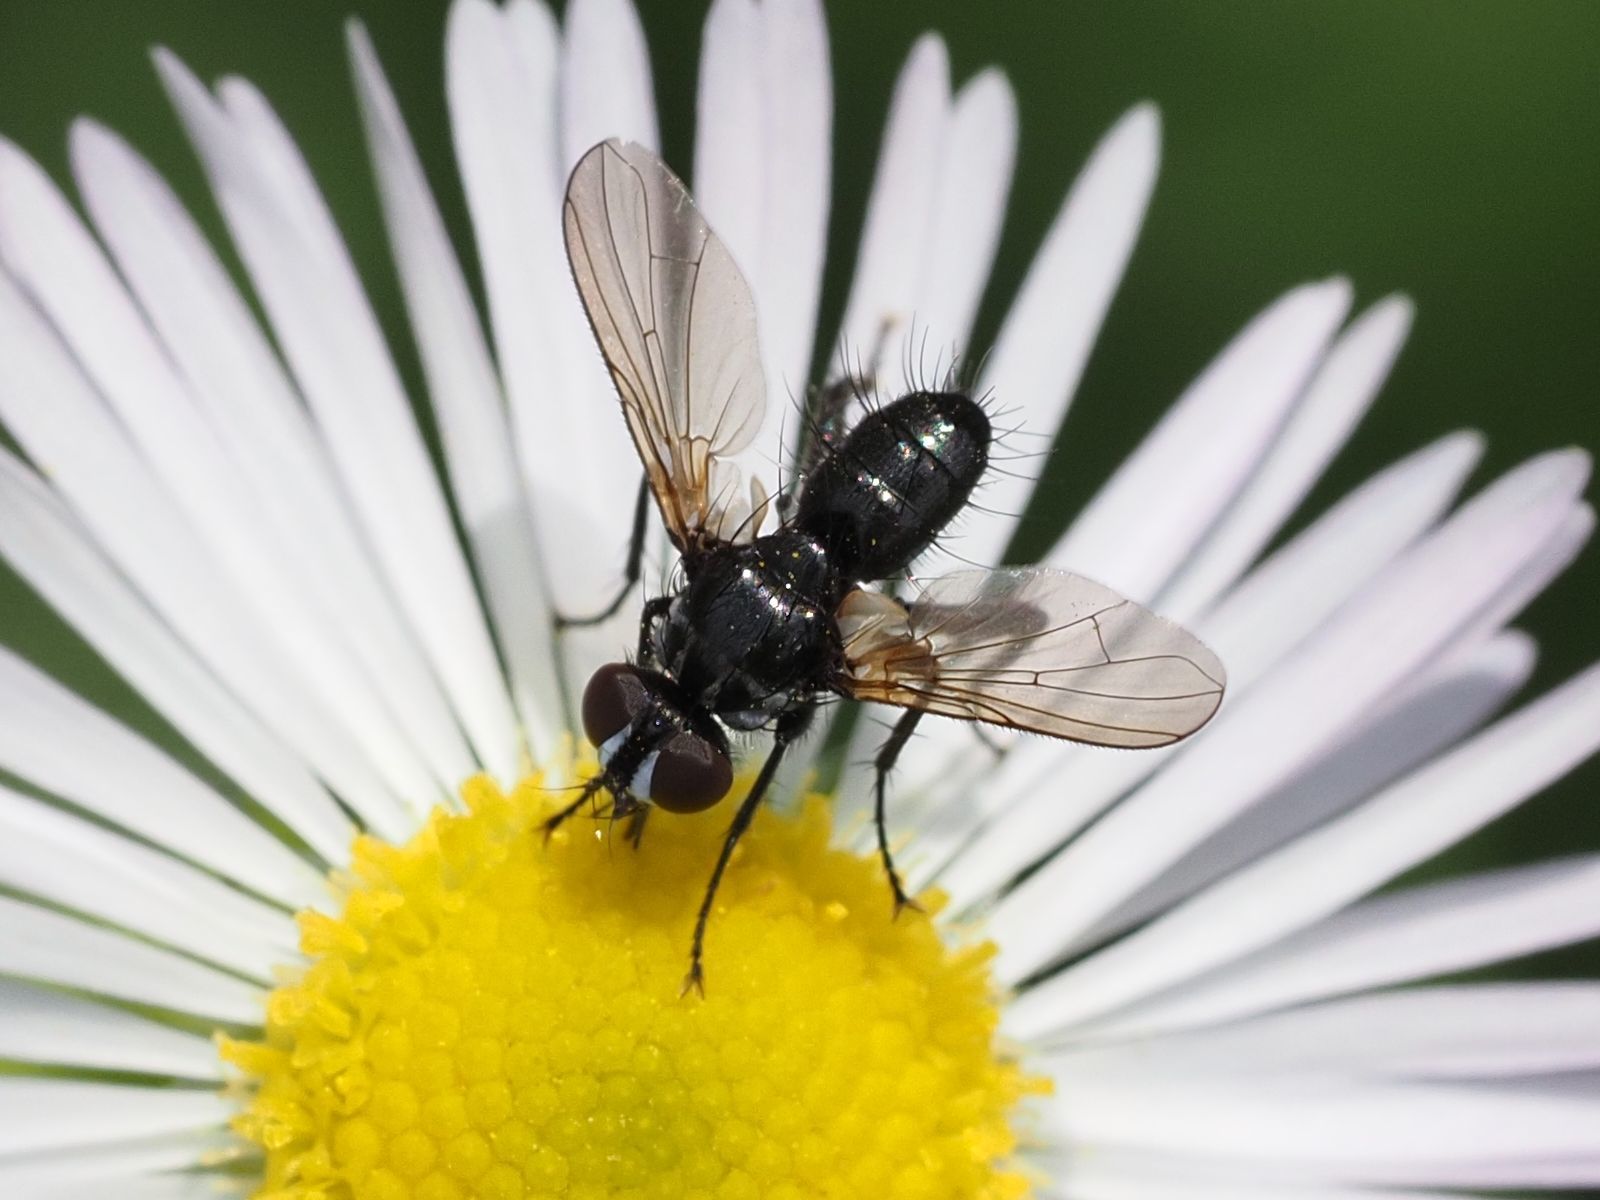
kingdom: Animalia
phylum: Arthropoda
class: Insecta
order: Diptera
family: Tachinidae
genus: Phania
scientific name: Phania funesta
